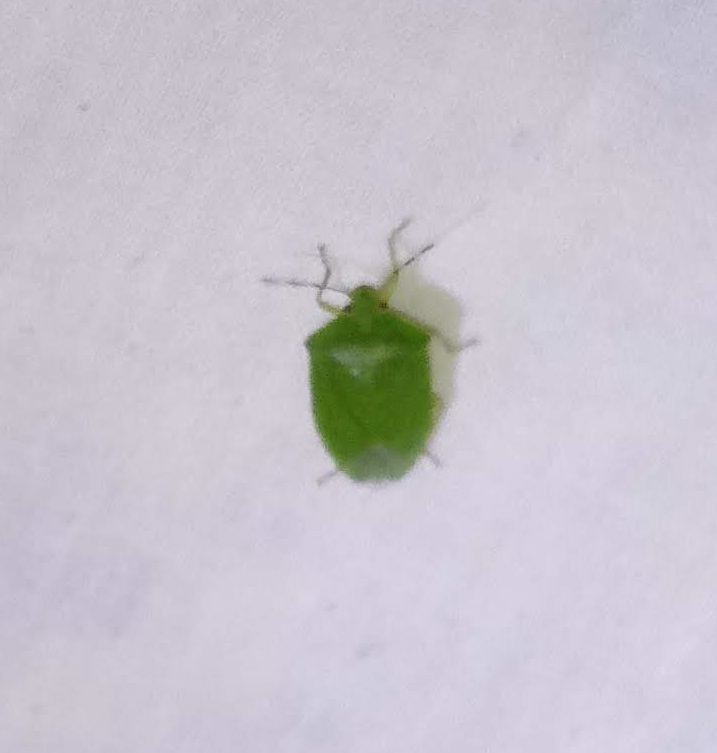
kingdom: Animalia
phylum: Arthropoda
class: Insecta
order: Hemiptera
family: Pentatomidae
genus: Chinavia
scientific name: Chinavia hilaris
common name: Green stink bug
